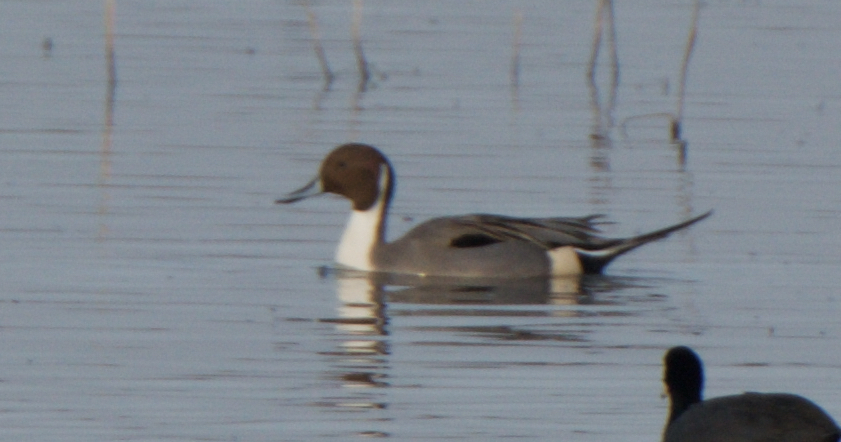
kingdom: Animalia
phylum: Chordata
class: Aves
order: Anseriformes
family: Anatidae
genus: Anas
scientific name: Anas acuta
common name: Northern pintail
